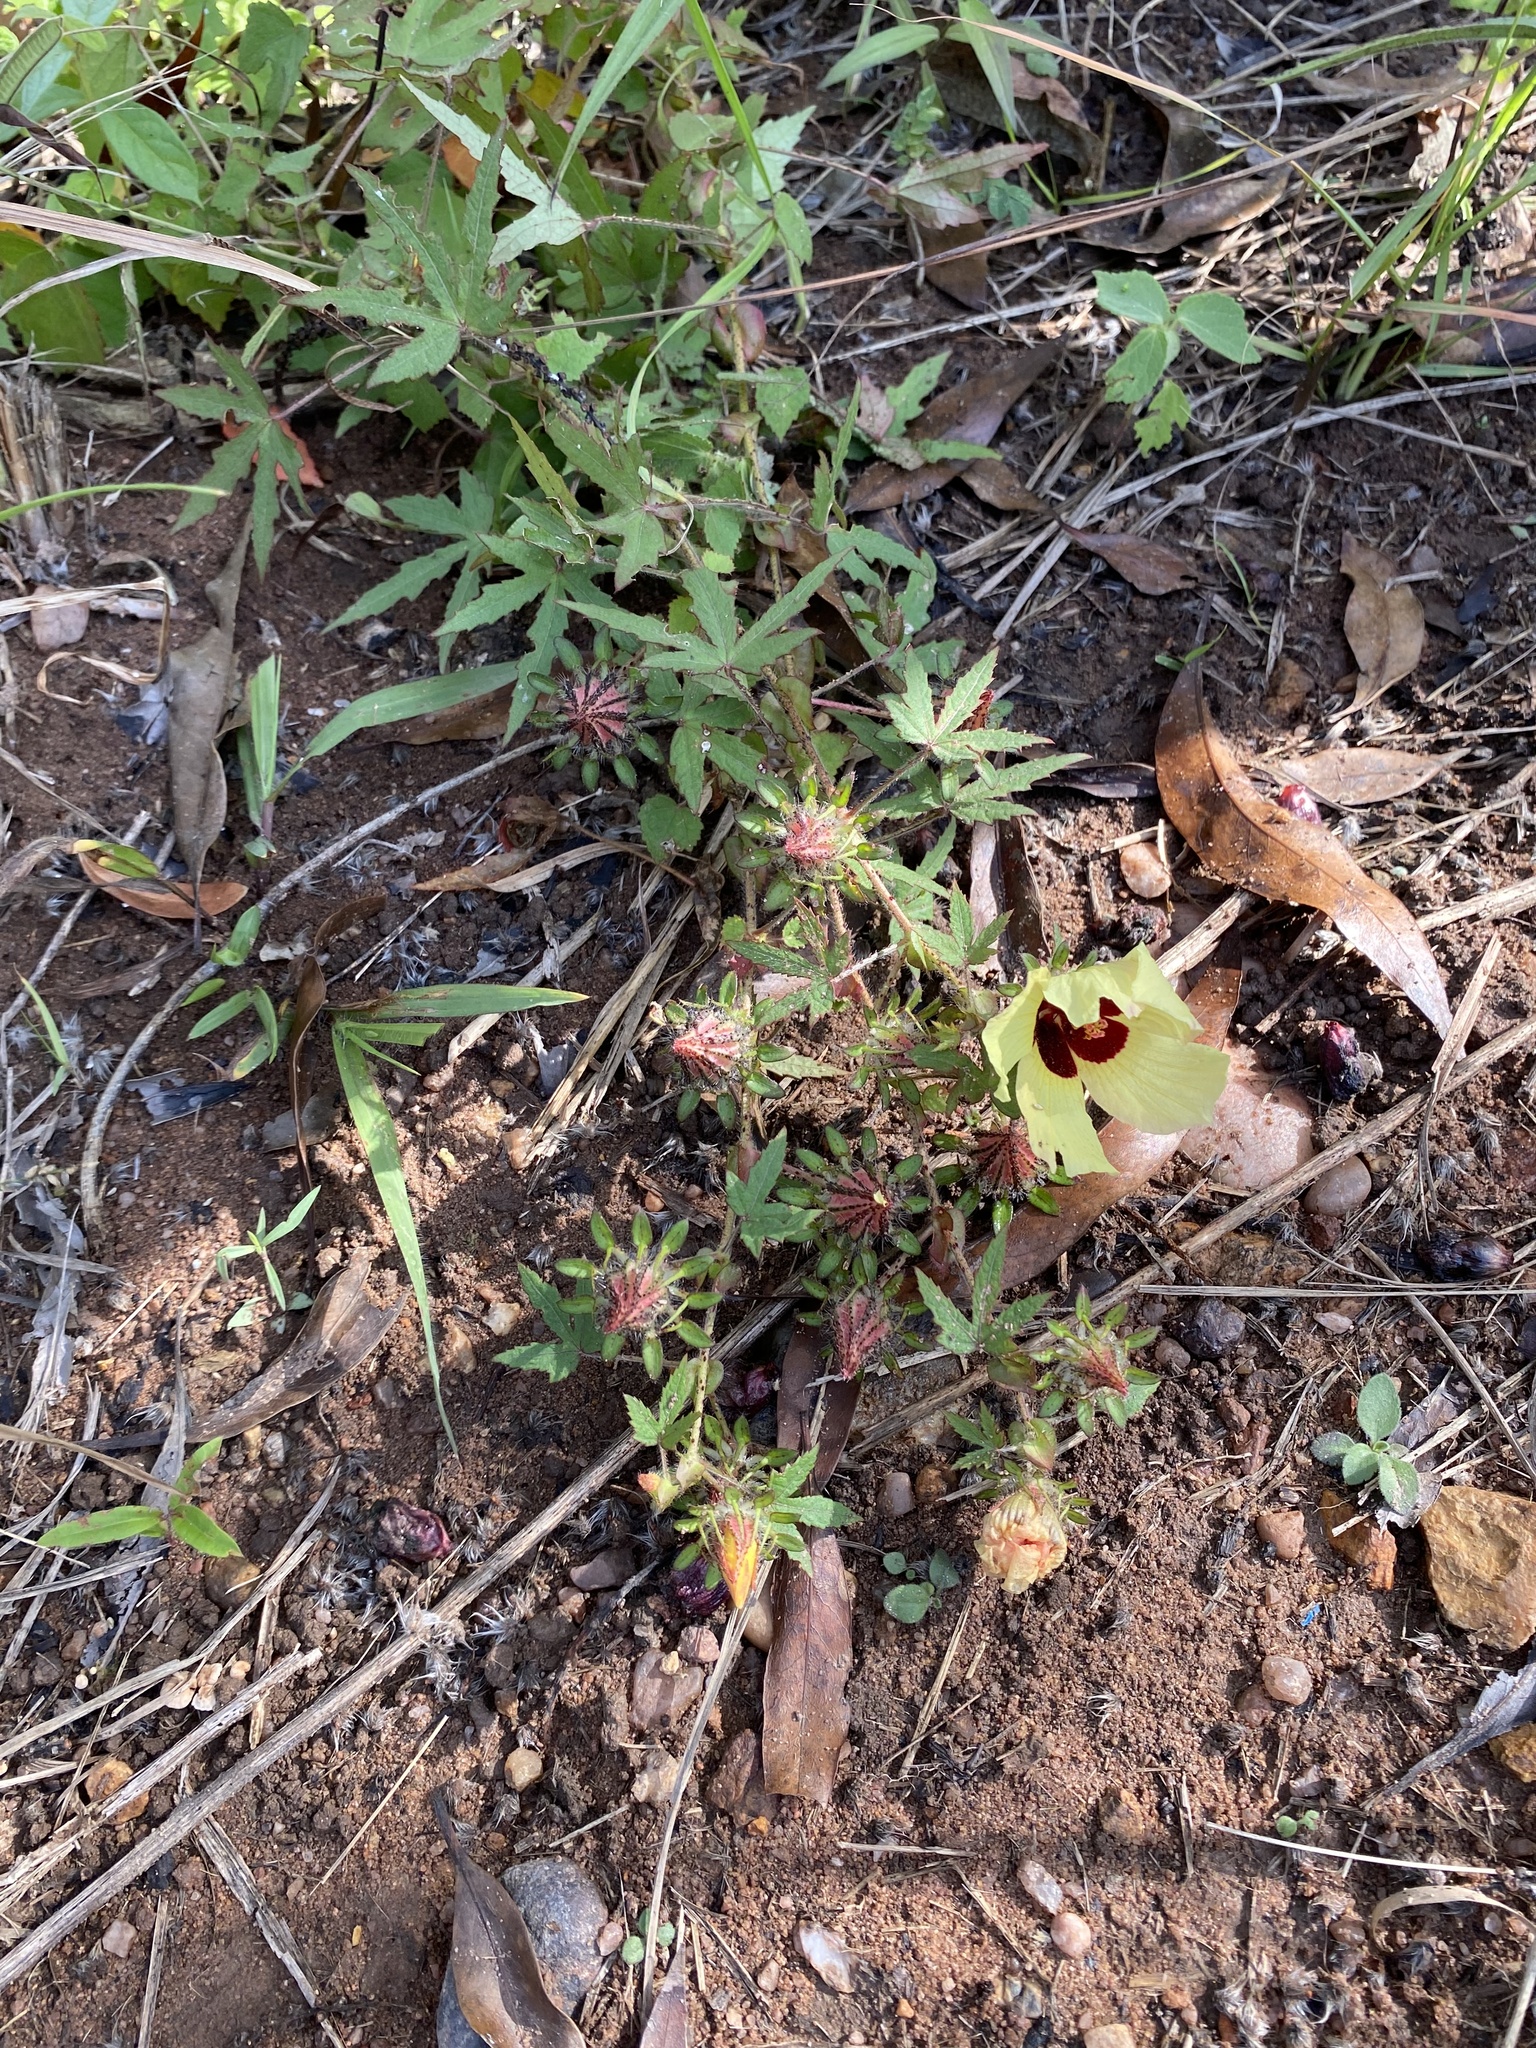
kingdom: Plantae
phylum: Tracheophyta
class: Magnoliopsida
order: Malvales
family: Malvaceae
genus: Hibiscus
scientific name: Hibiscus surattensis
